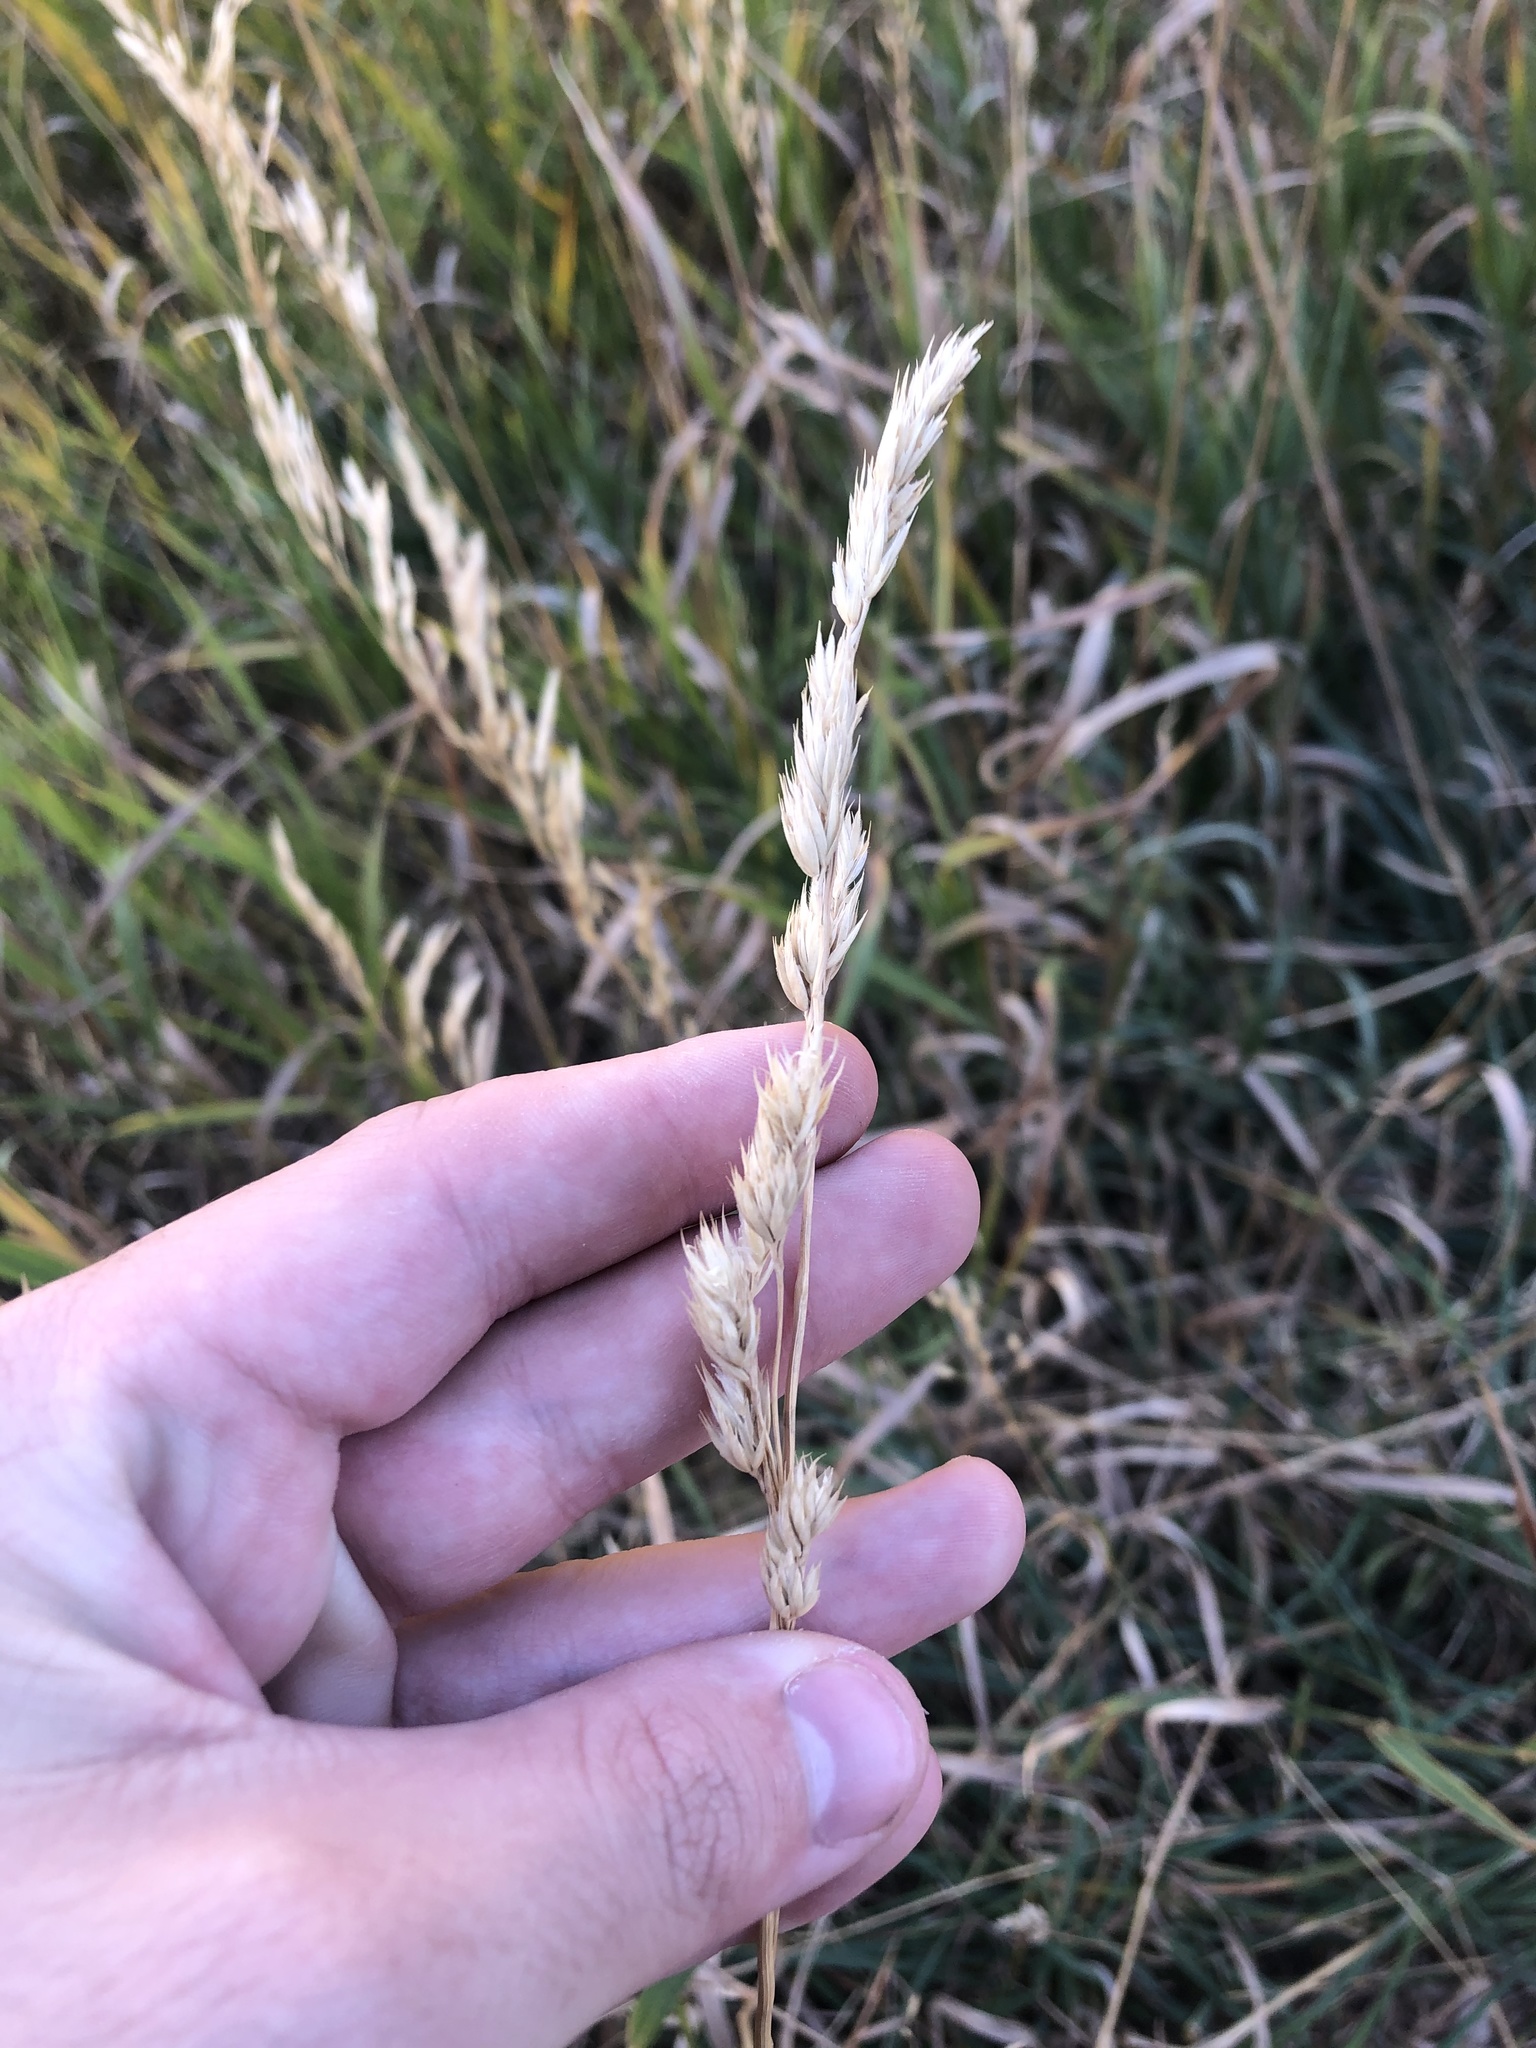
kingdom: Plantae
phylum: Tracheophyta
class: Liliopsida
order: Poales
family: Poaceae
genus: Dactylis
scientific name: Dactylis glomerata
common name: Orchardgrass
